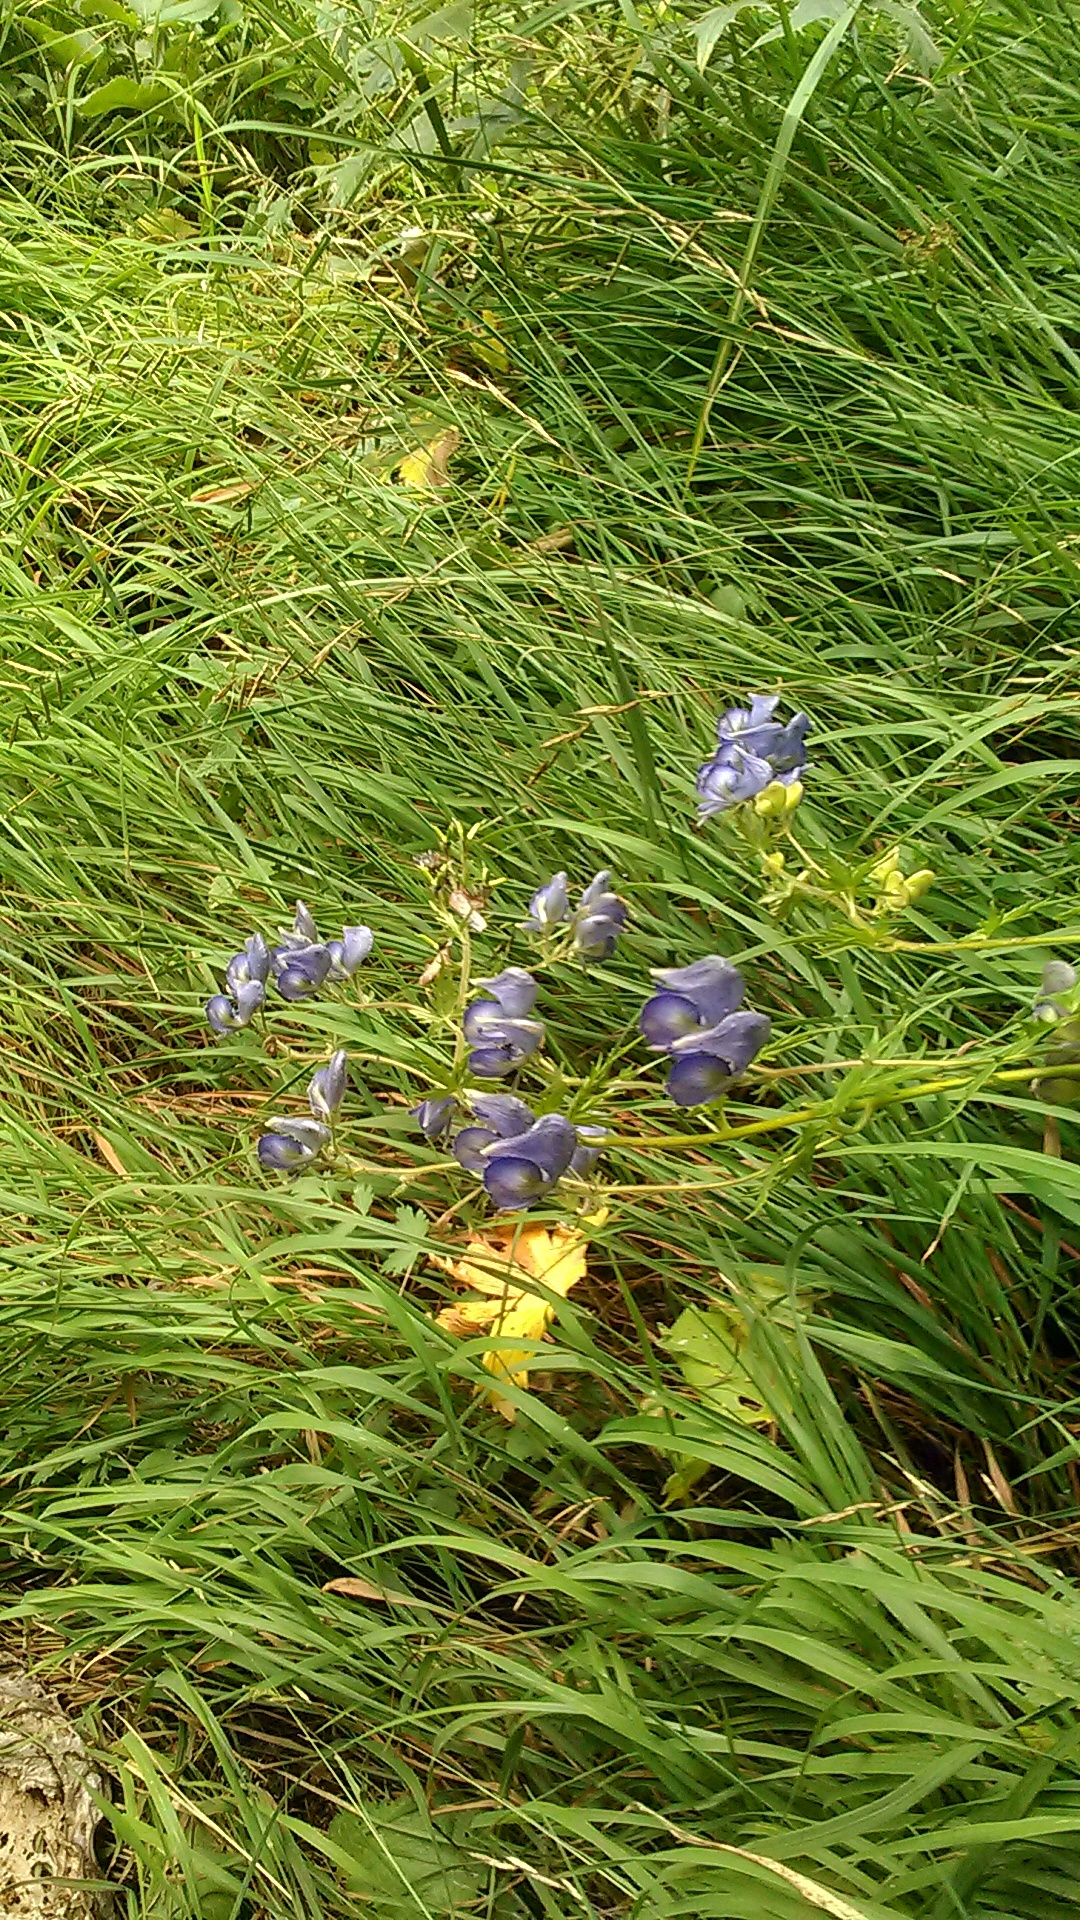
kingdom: Plantae
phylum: Tracheophyta
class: Magnoliopsida
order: Ranunculales
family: Ranunculaceae
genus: Aconitum
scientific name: Aconitum
